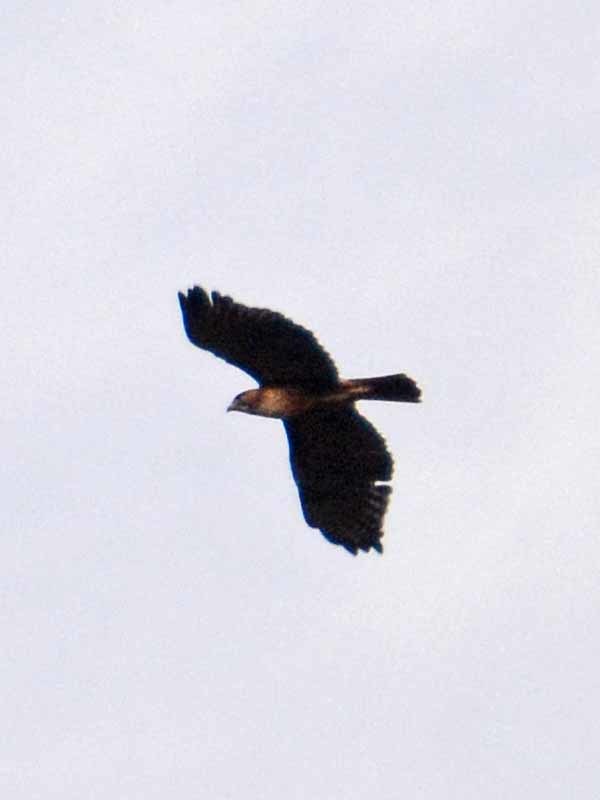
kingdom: Animalia
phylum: Chordata
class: Aves
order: Accipitriformes
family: Accipitridae
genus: Buteo
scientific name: Buteo jamaicensis
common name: Red-tailed hawk
